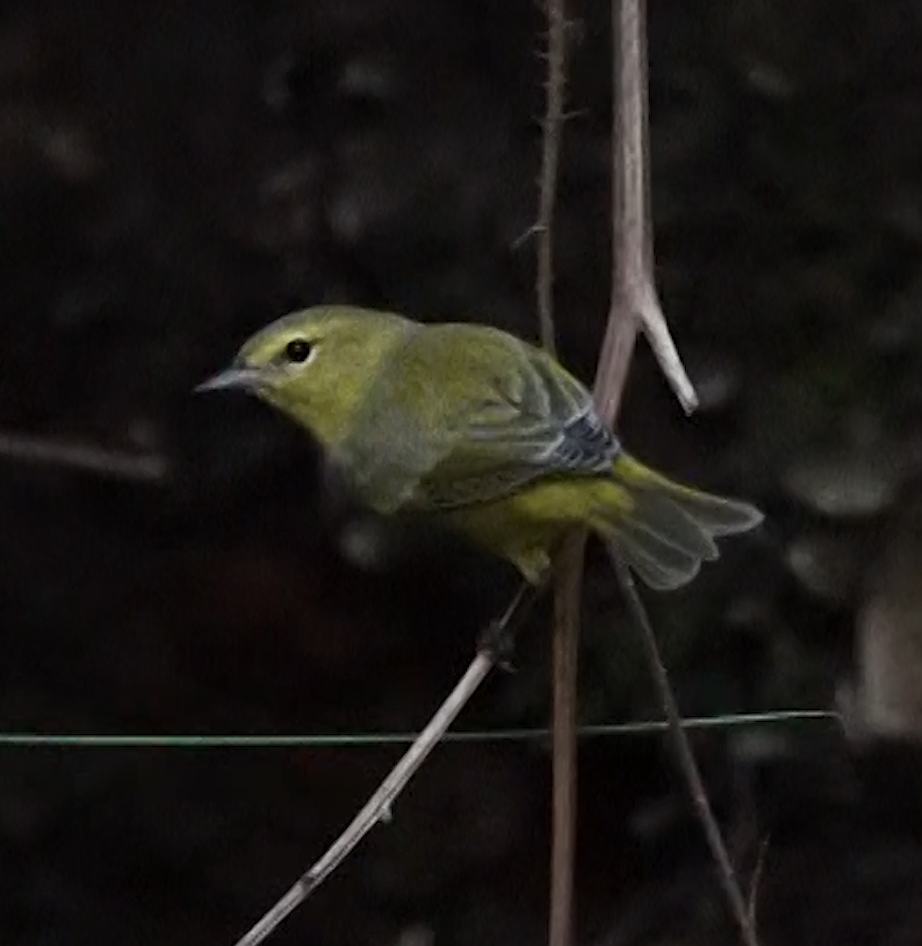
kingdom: Animalia
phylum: Chordata
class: Aves
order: Passeriformes
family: Parulidae
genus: Leiothlypis
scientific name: Leiothlypis celata
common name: Orange-crowned warbler
